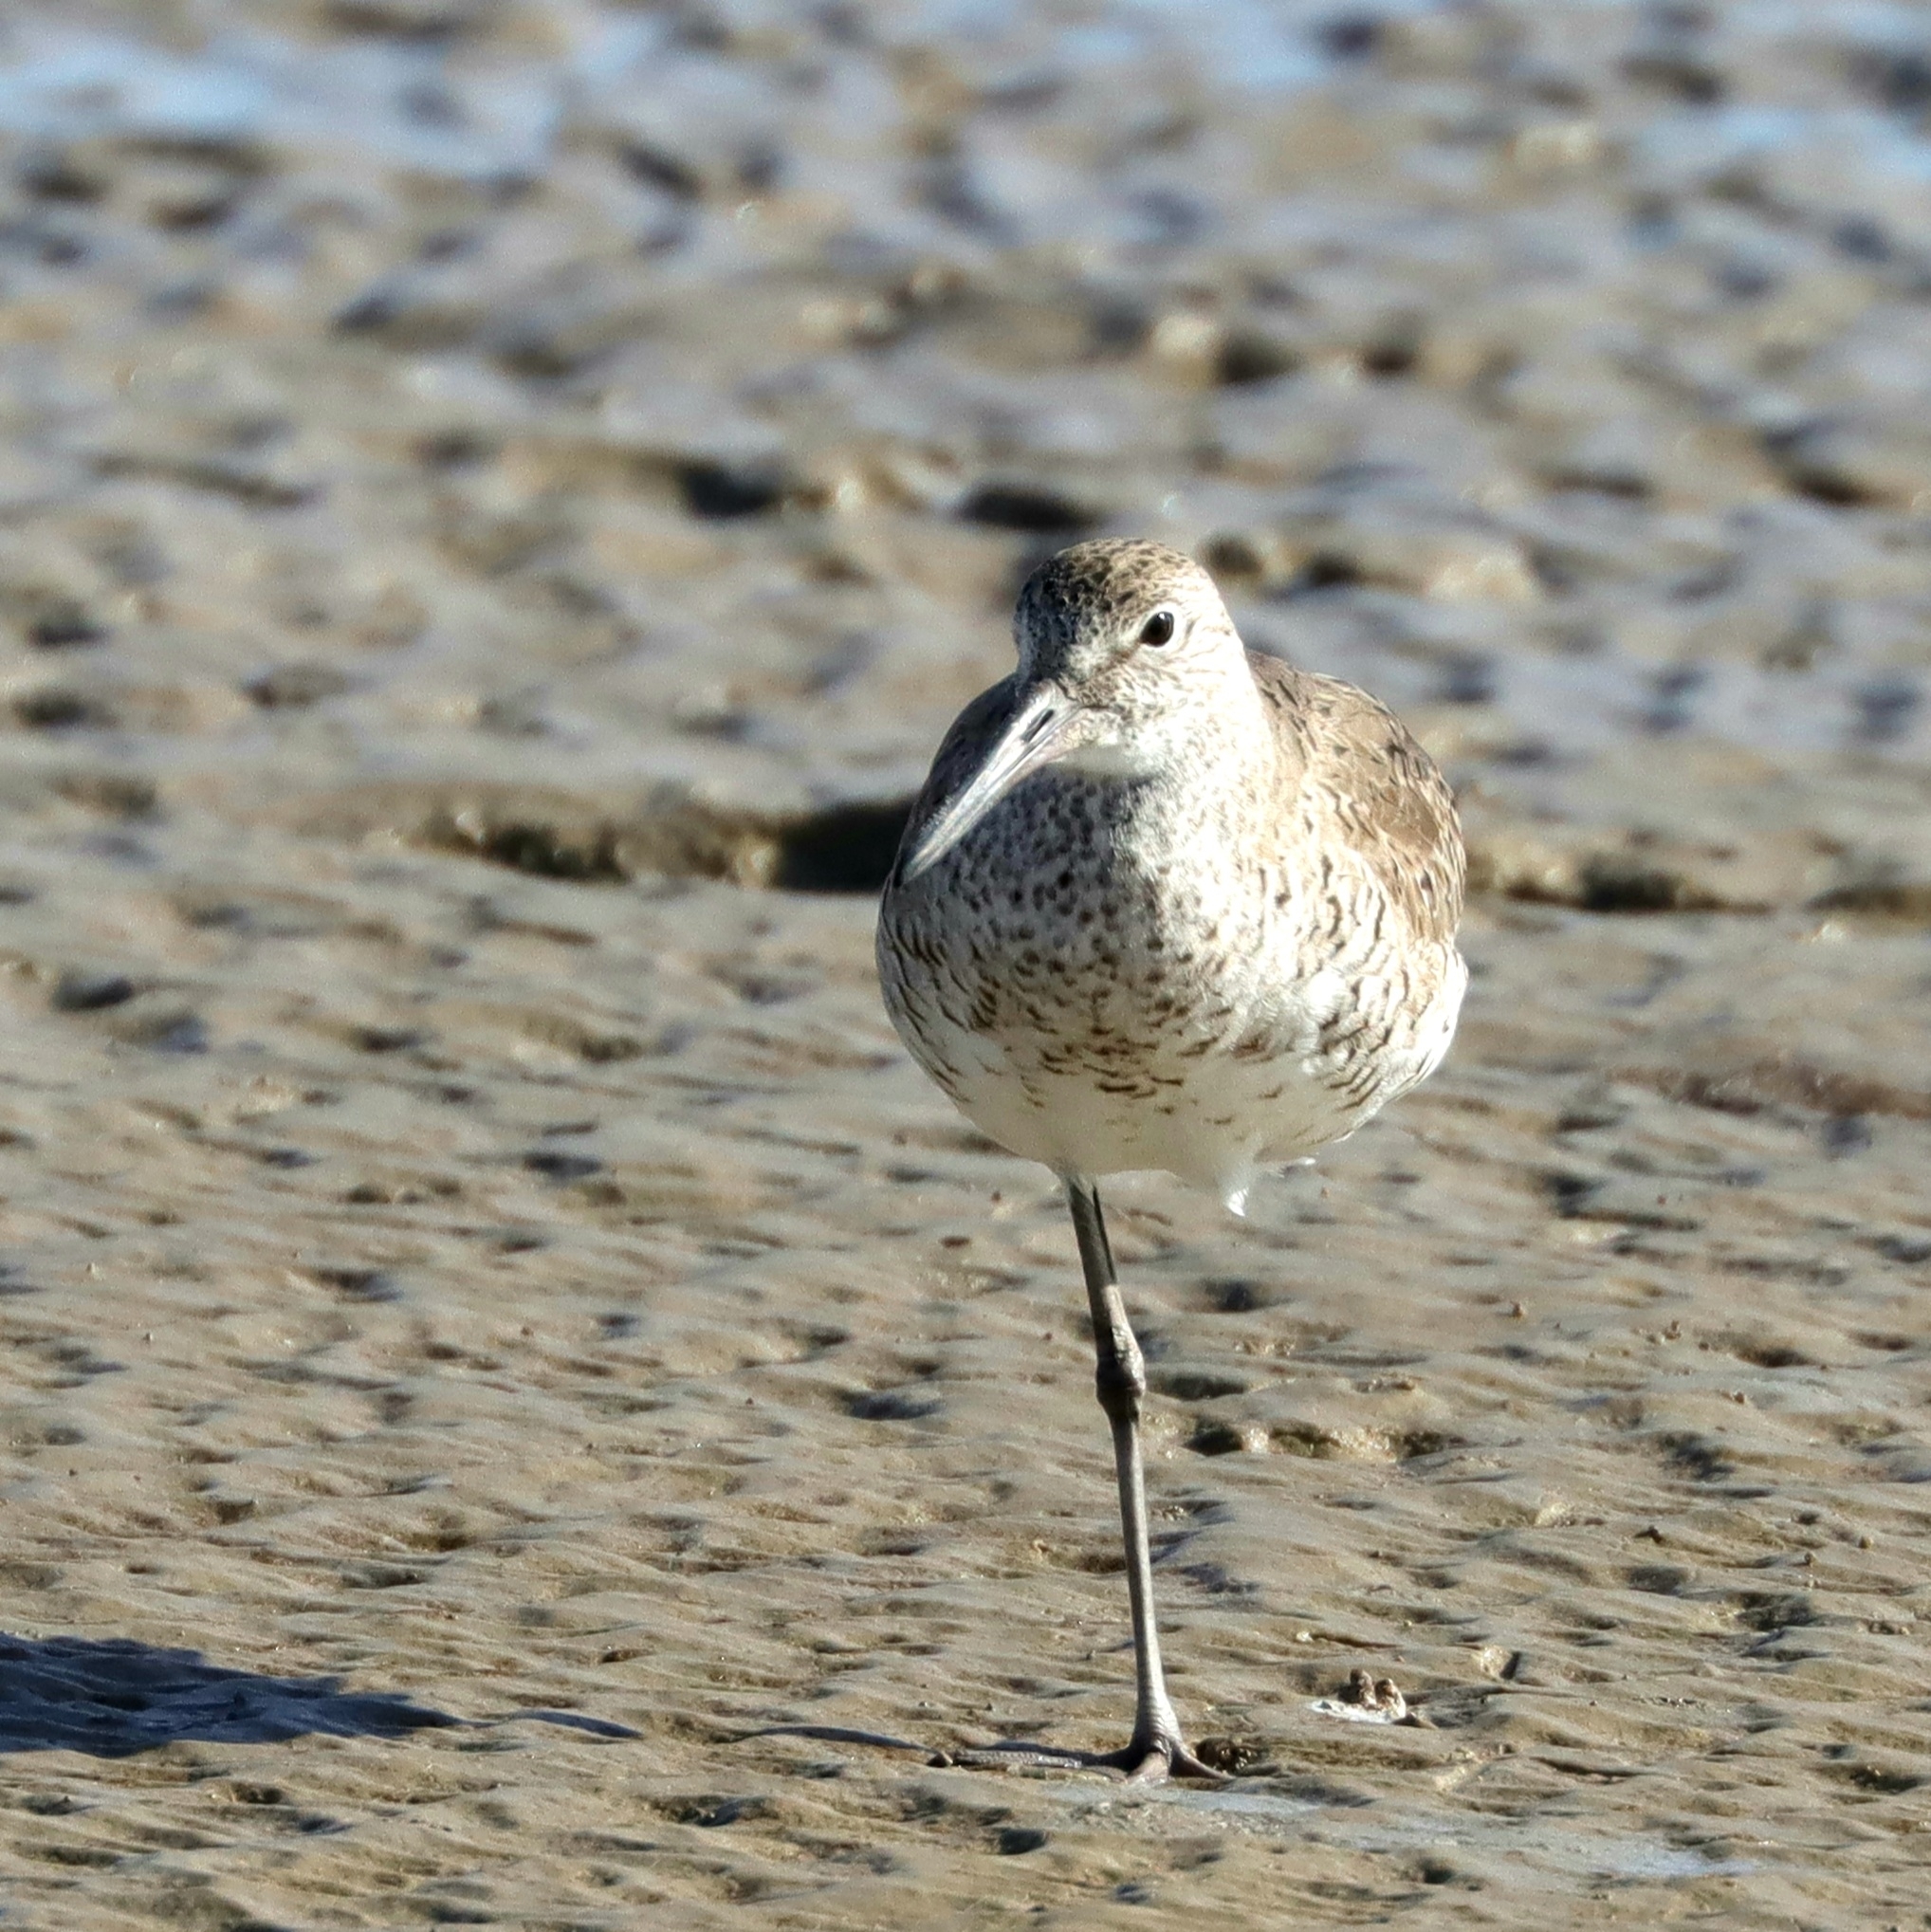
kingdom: Animalia
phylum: Chordata
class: Aves
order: Charadriiformes
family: Scolopacidae
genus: Tringa
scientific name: Tringa semipalmata
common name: Willet
